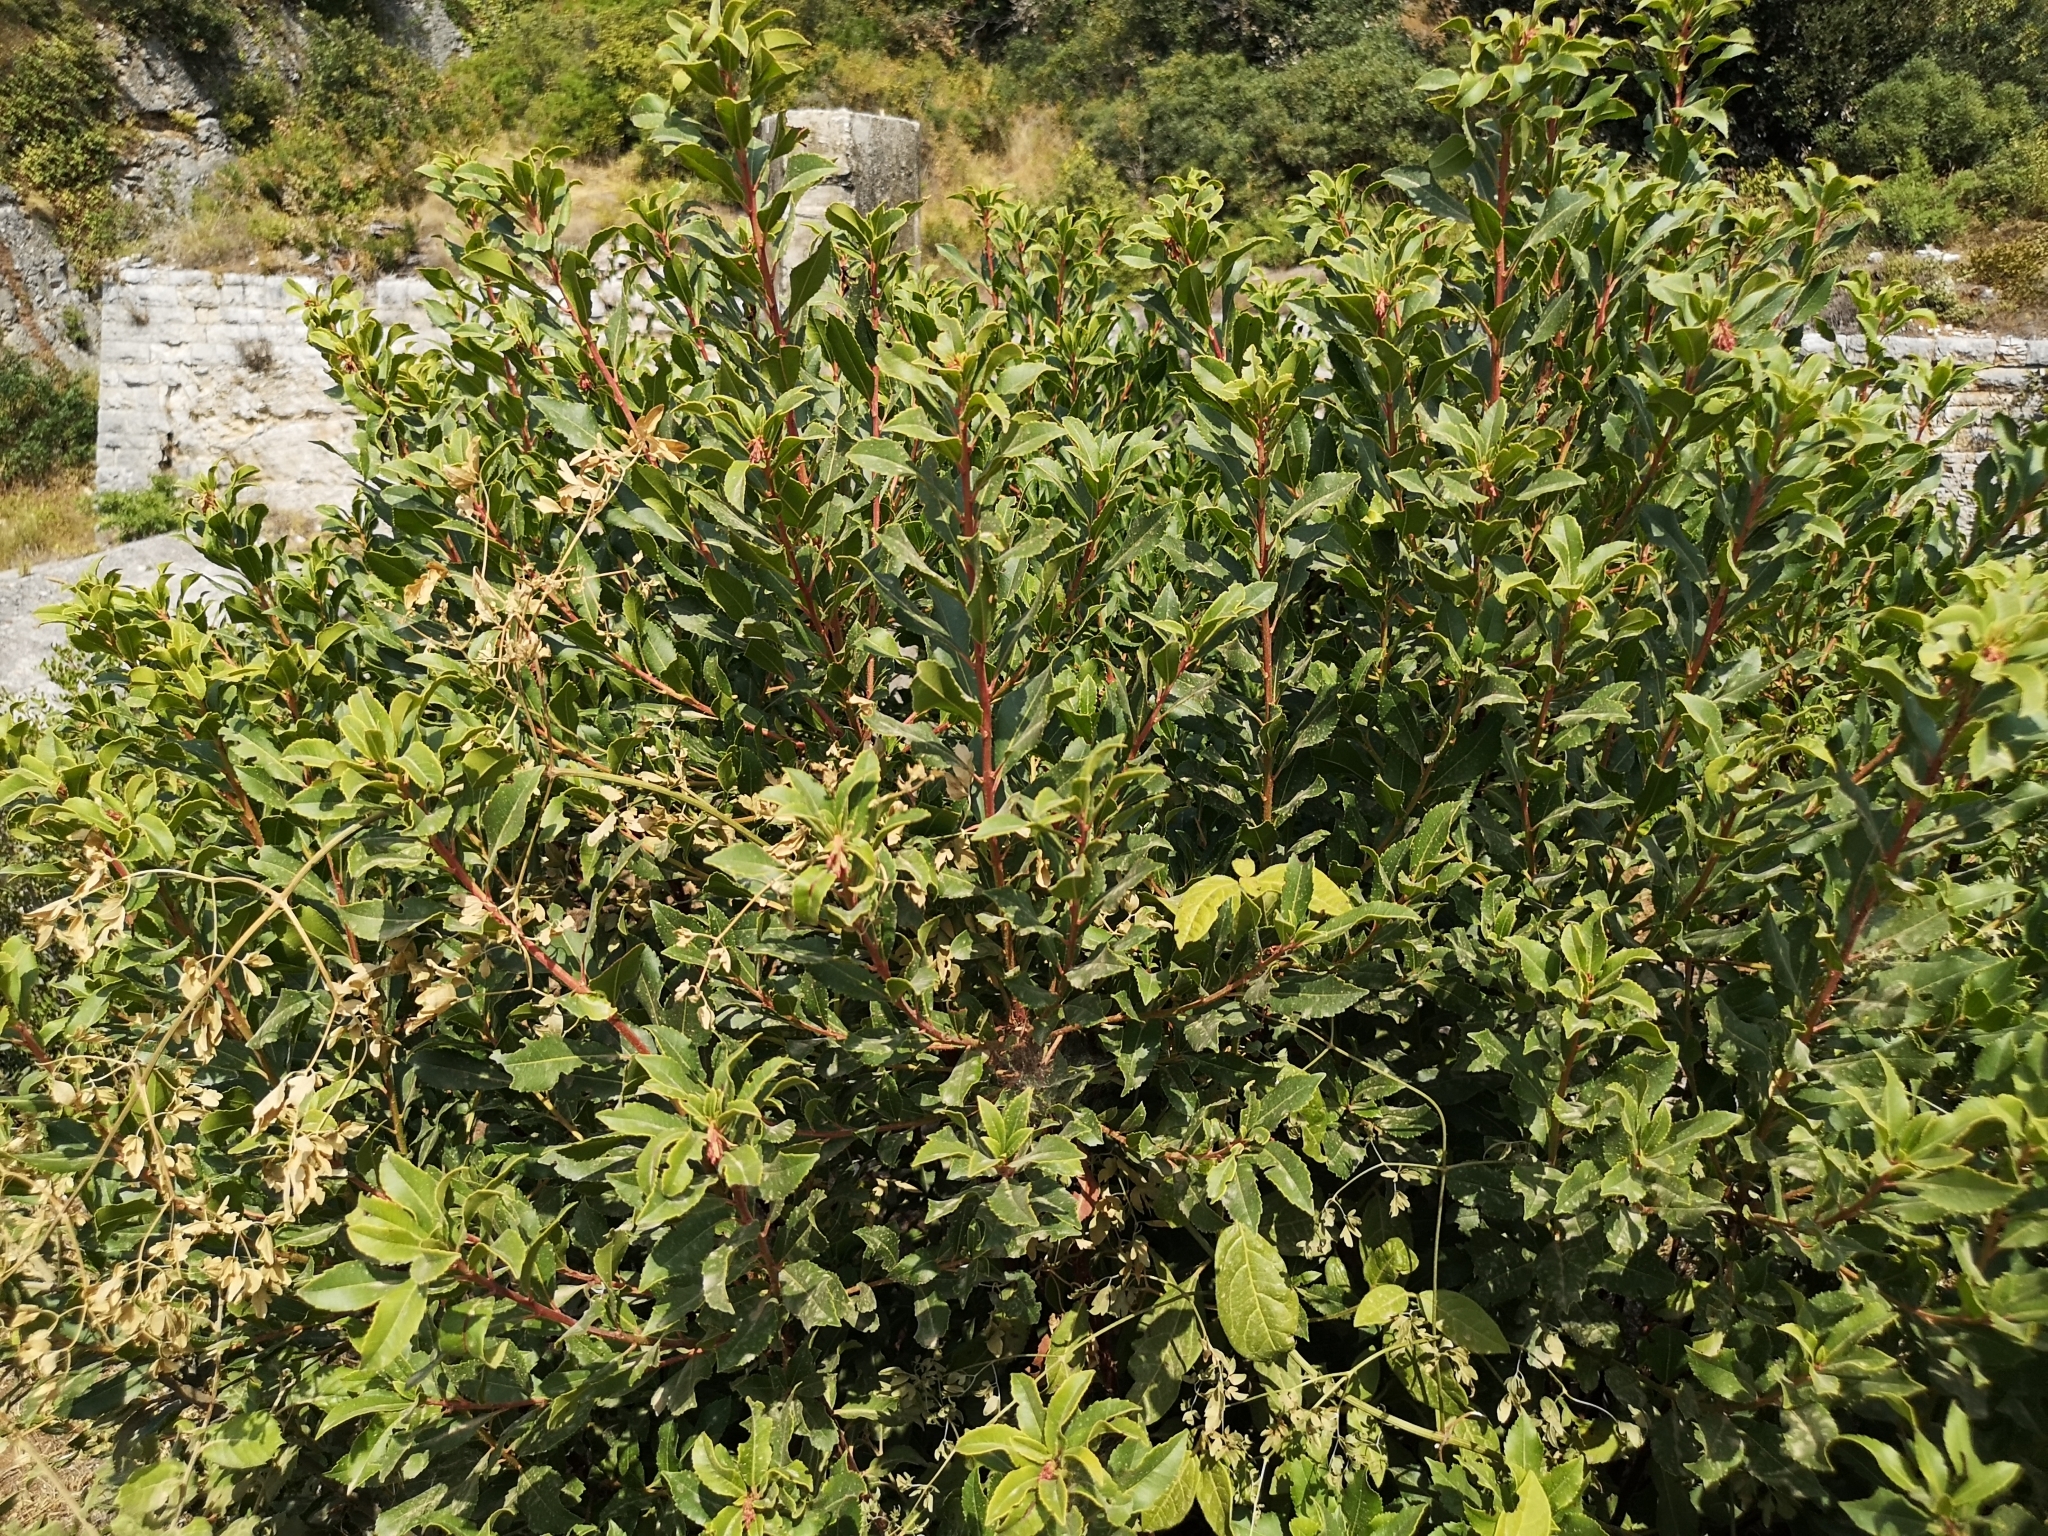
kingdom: Plantae
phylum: Tracheophyta
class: Magnoliopsida
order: Ericales
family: Ericaceae
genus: Arbutus
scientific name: Arbutus unedo
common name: Strawberry-tree
